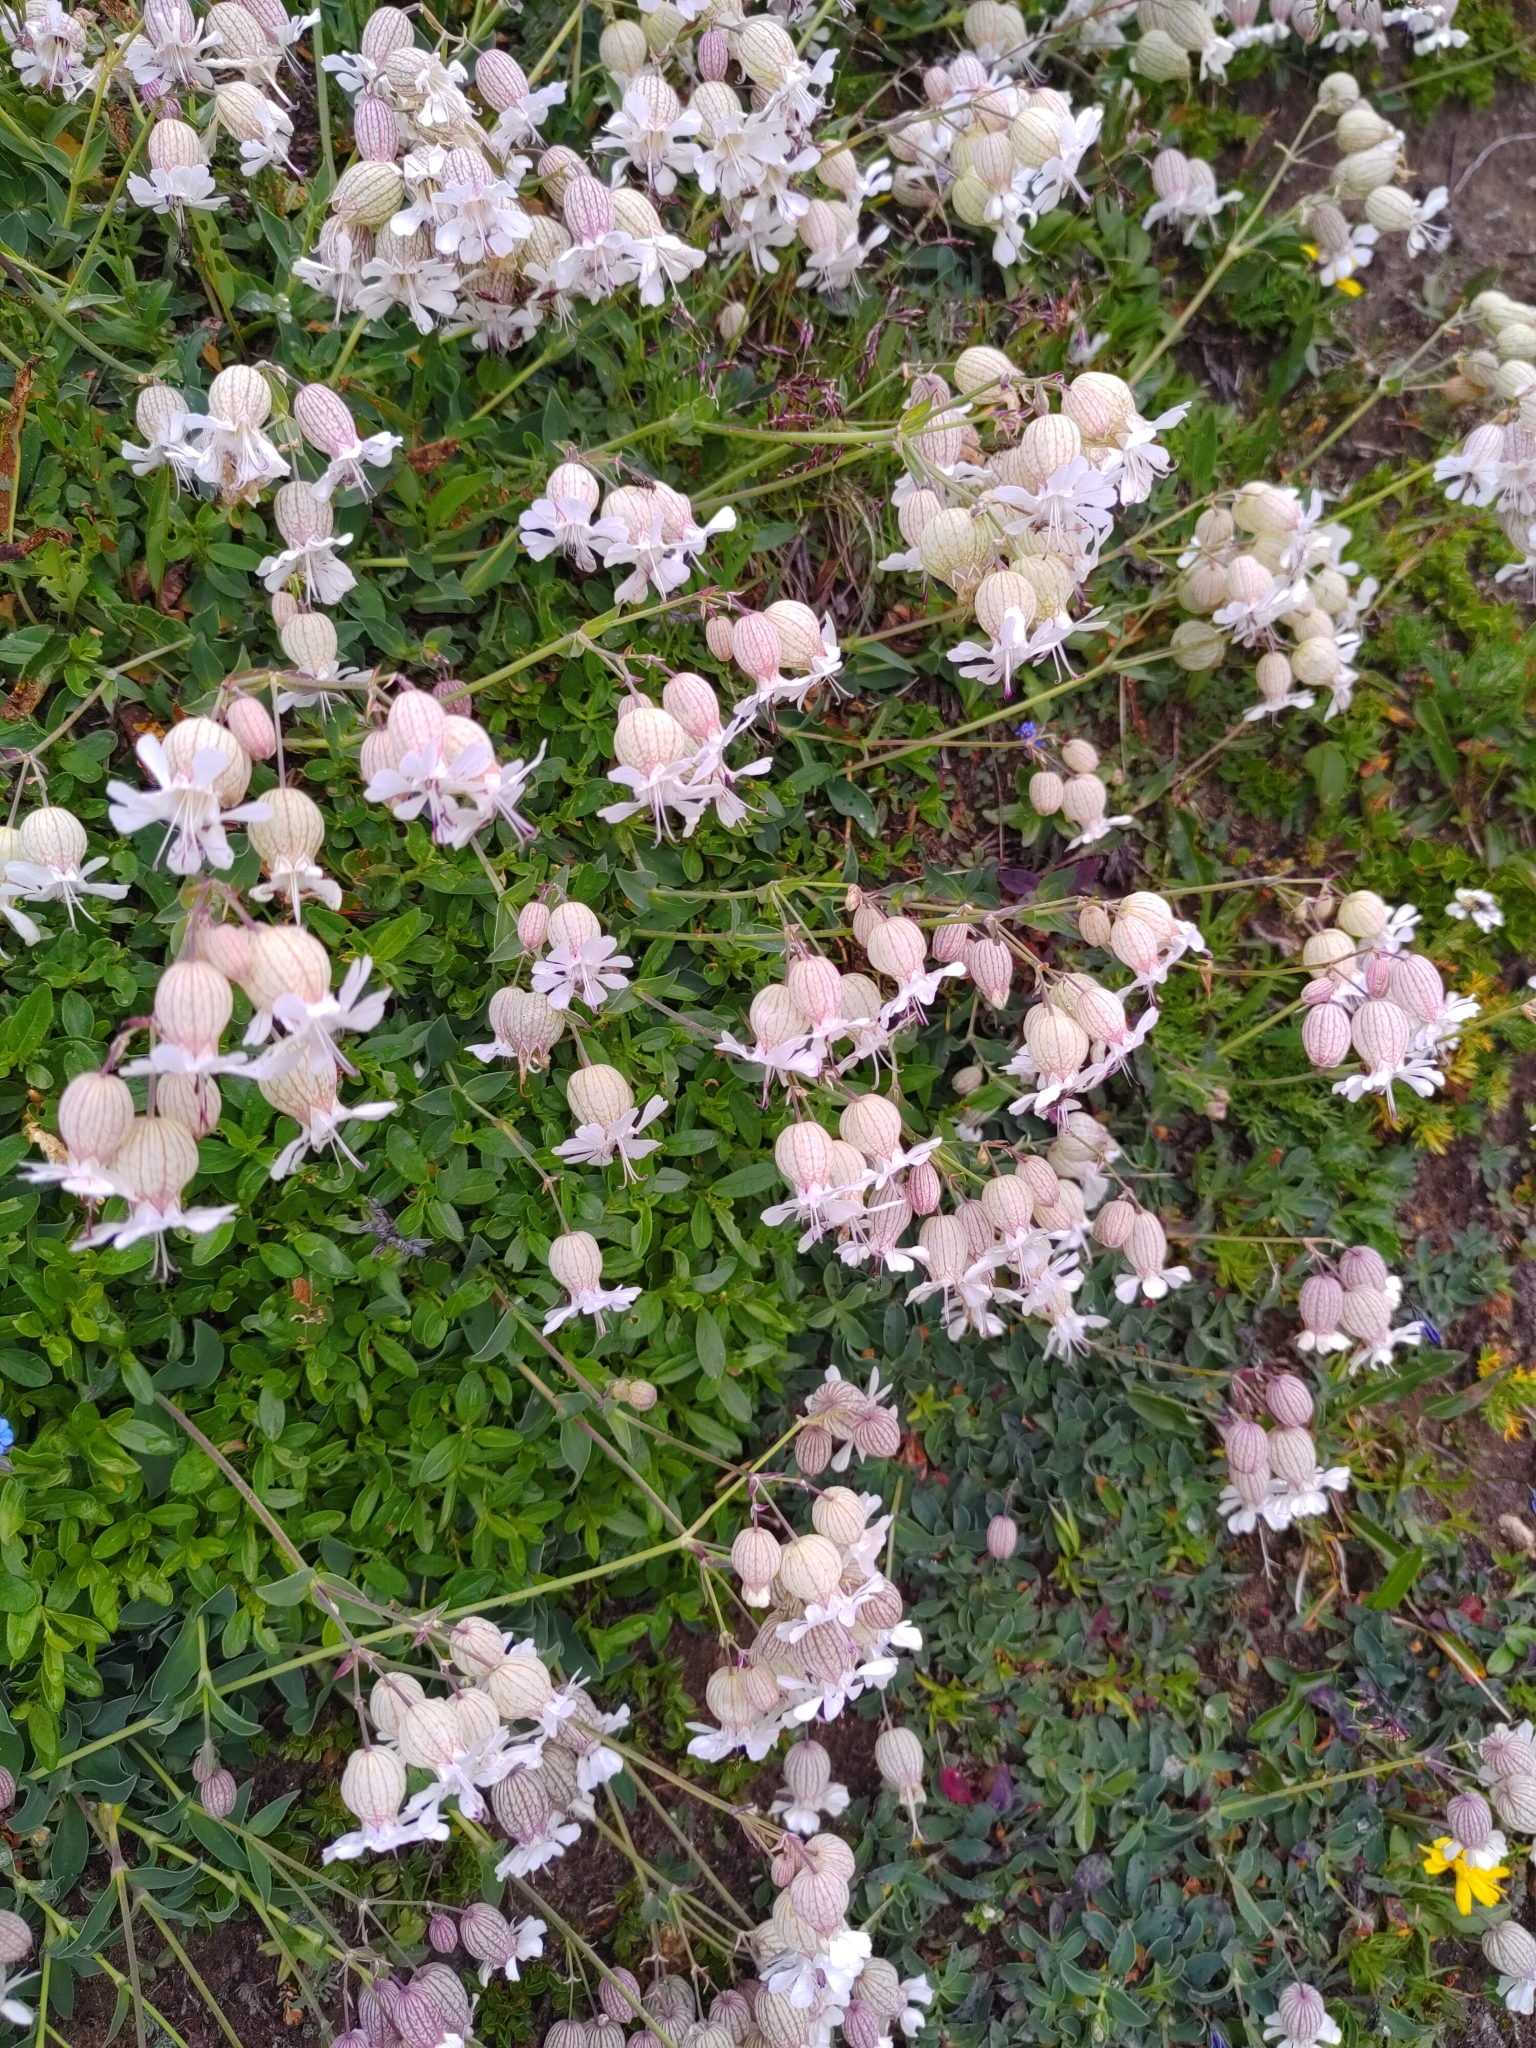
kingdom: Plantae
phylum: Tracheophyta
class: Magnoliopsida
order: Caryophyllales
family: Caryophyllaceae
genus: Silene
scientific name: Silene vulgaris
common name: Bladder campion
